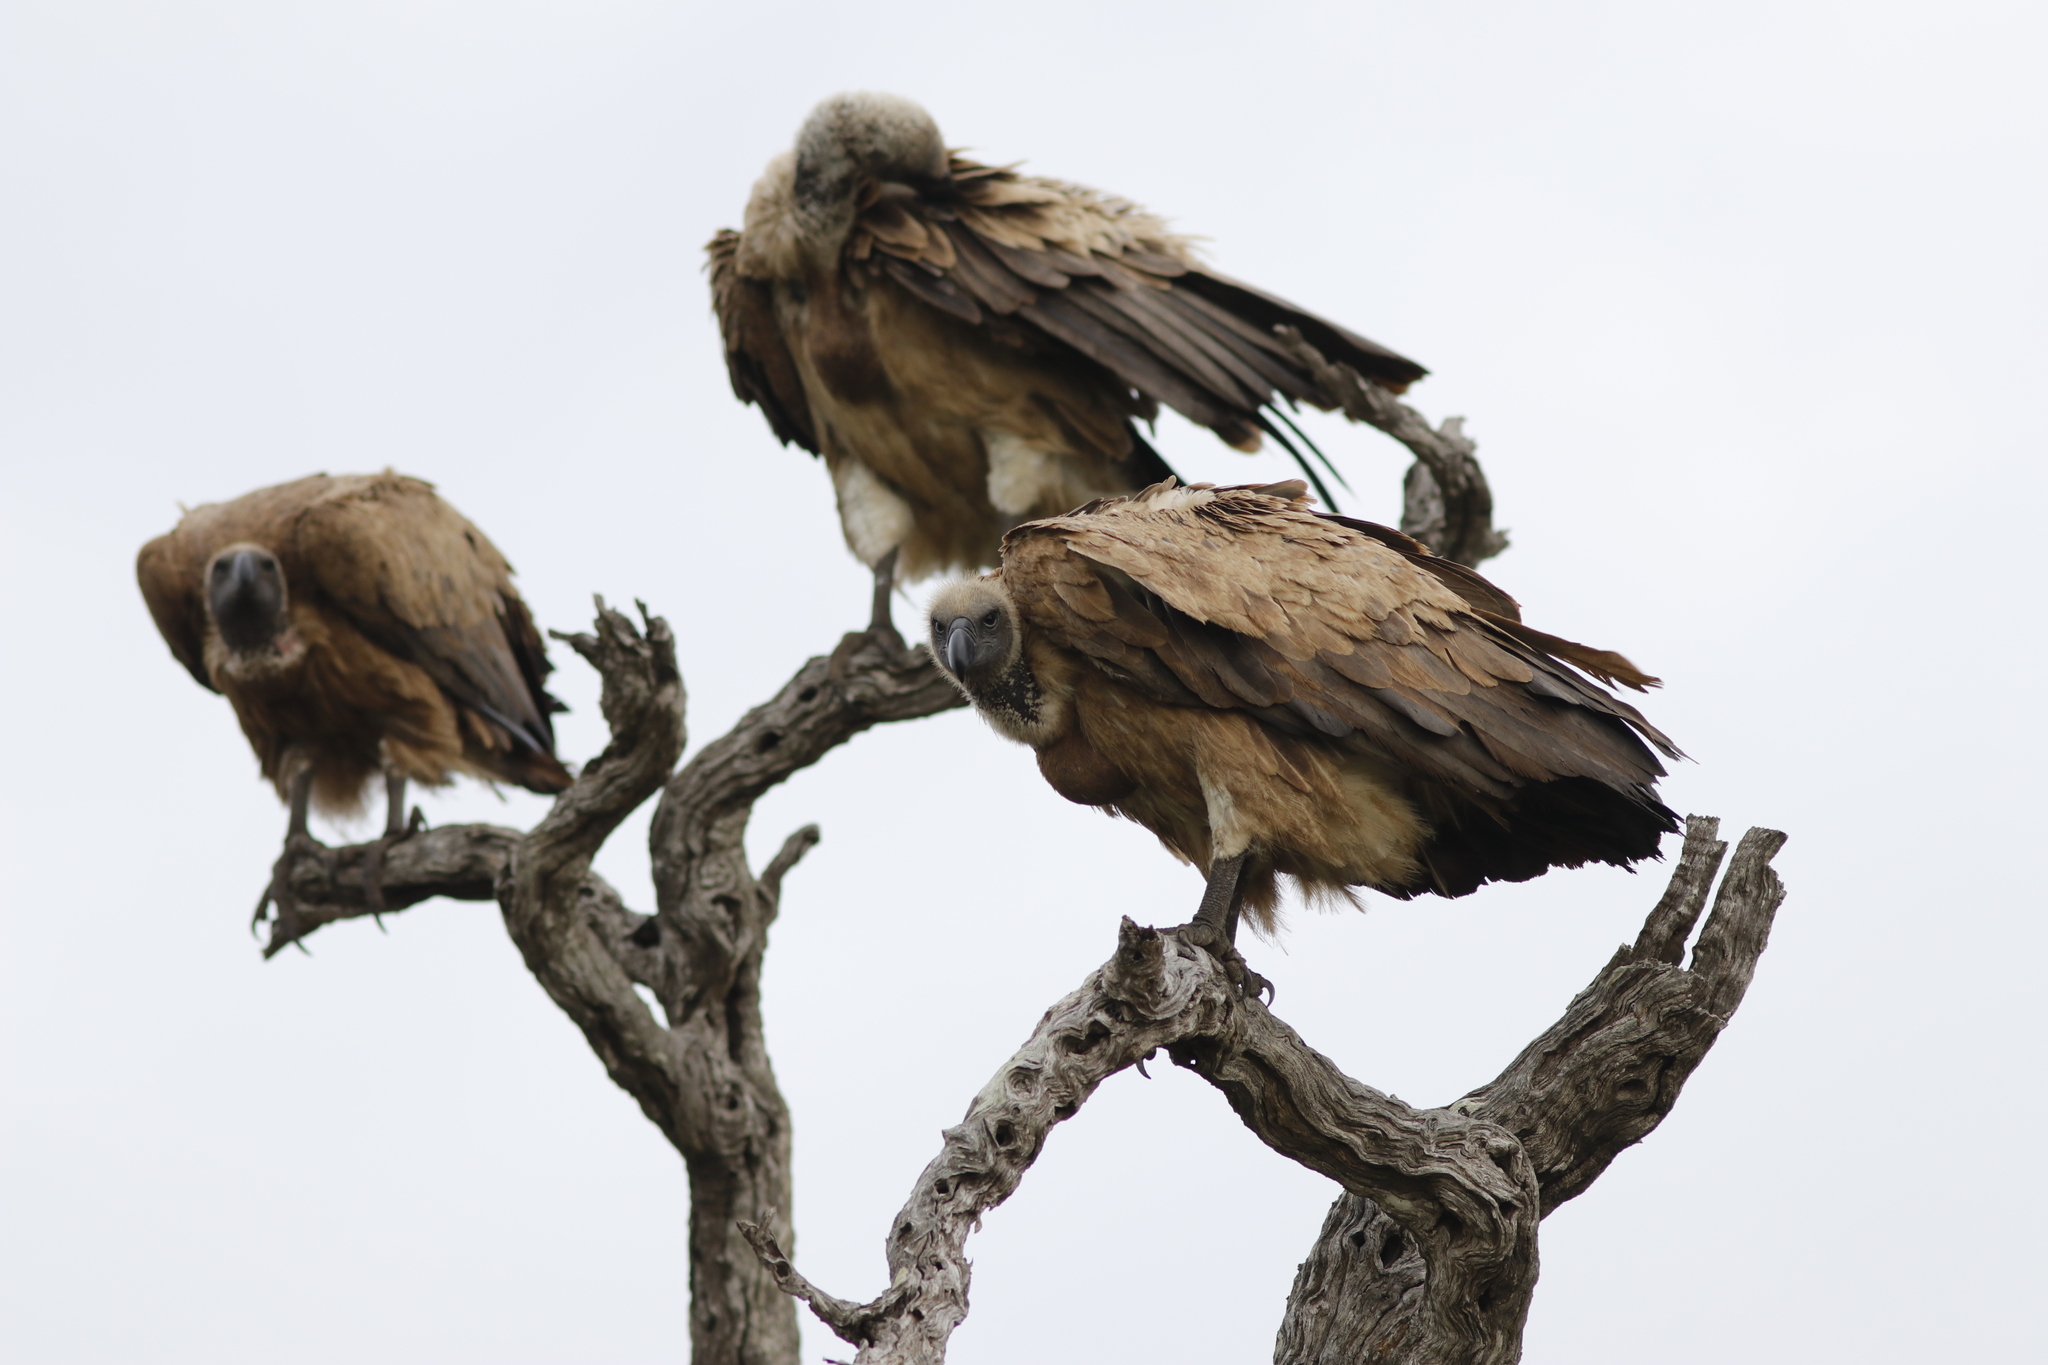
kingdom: Animalia
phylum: Chordata
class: Aves
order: Accipitriformes
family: Accipitridae
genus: Gyps
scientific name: Gyps africanus
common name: White-backed vulture
